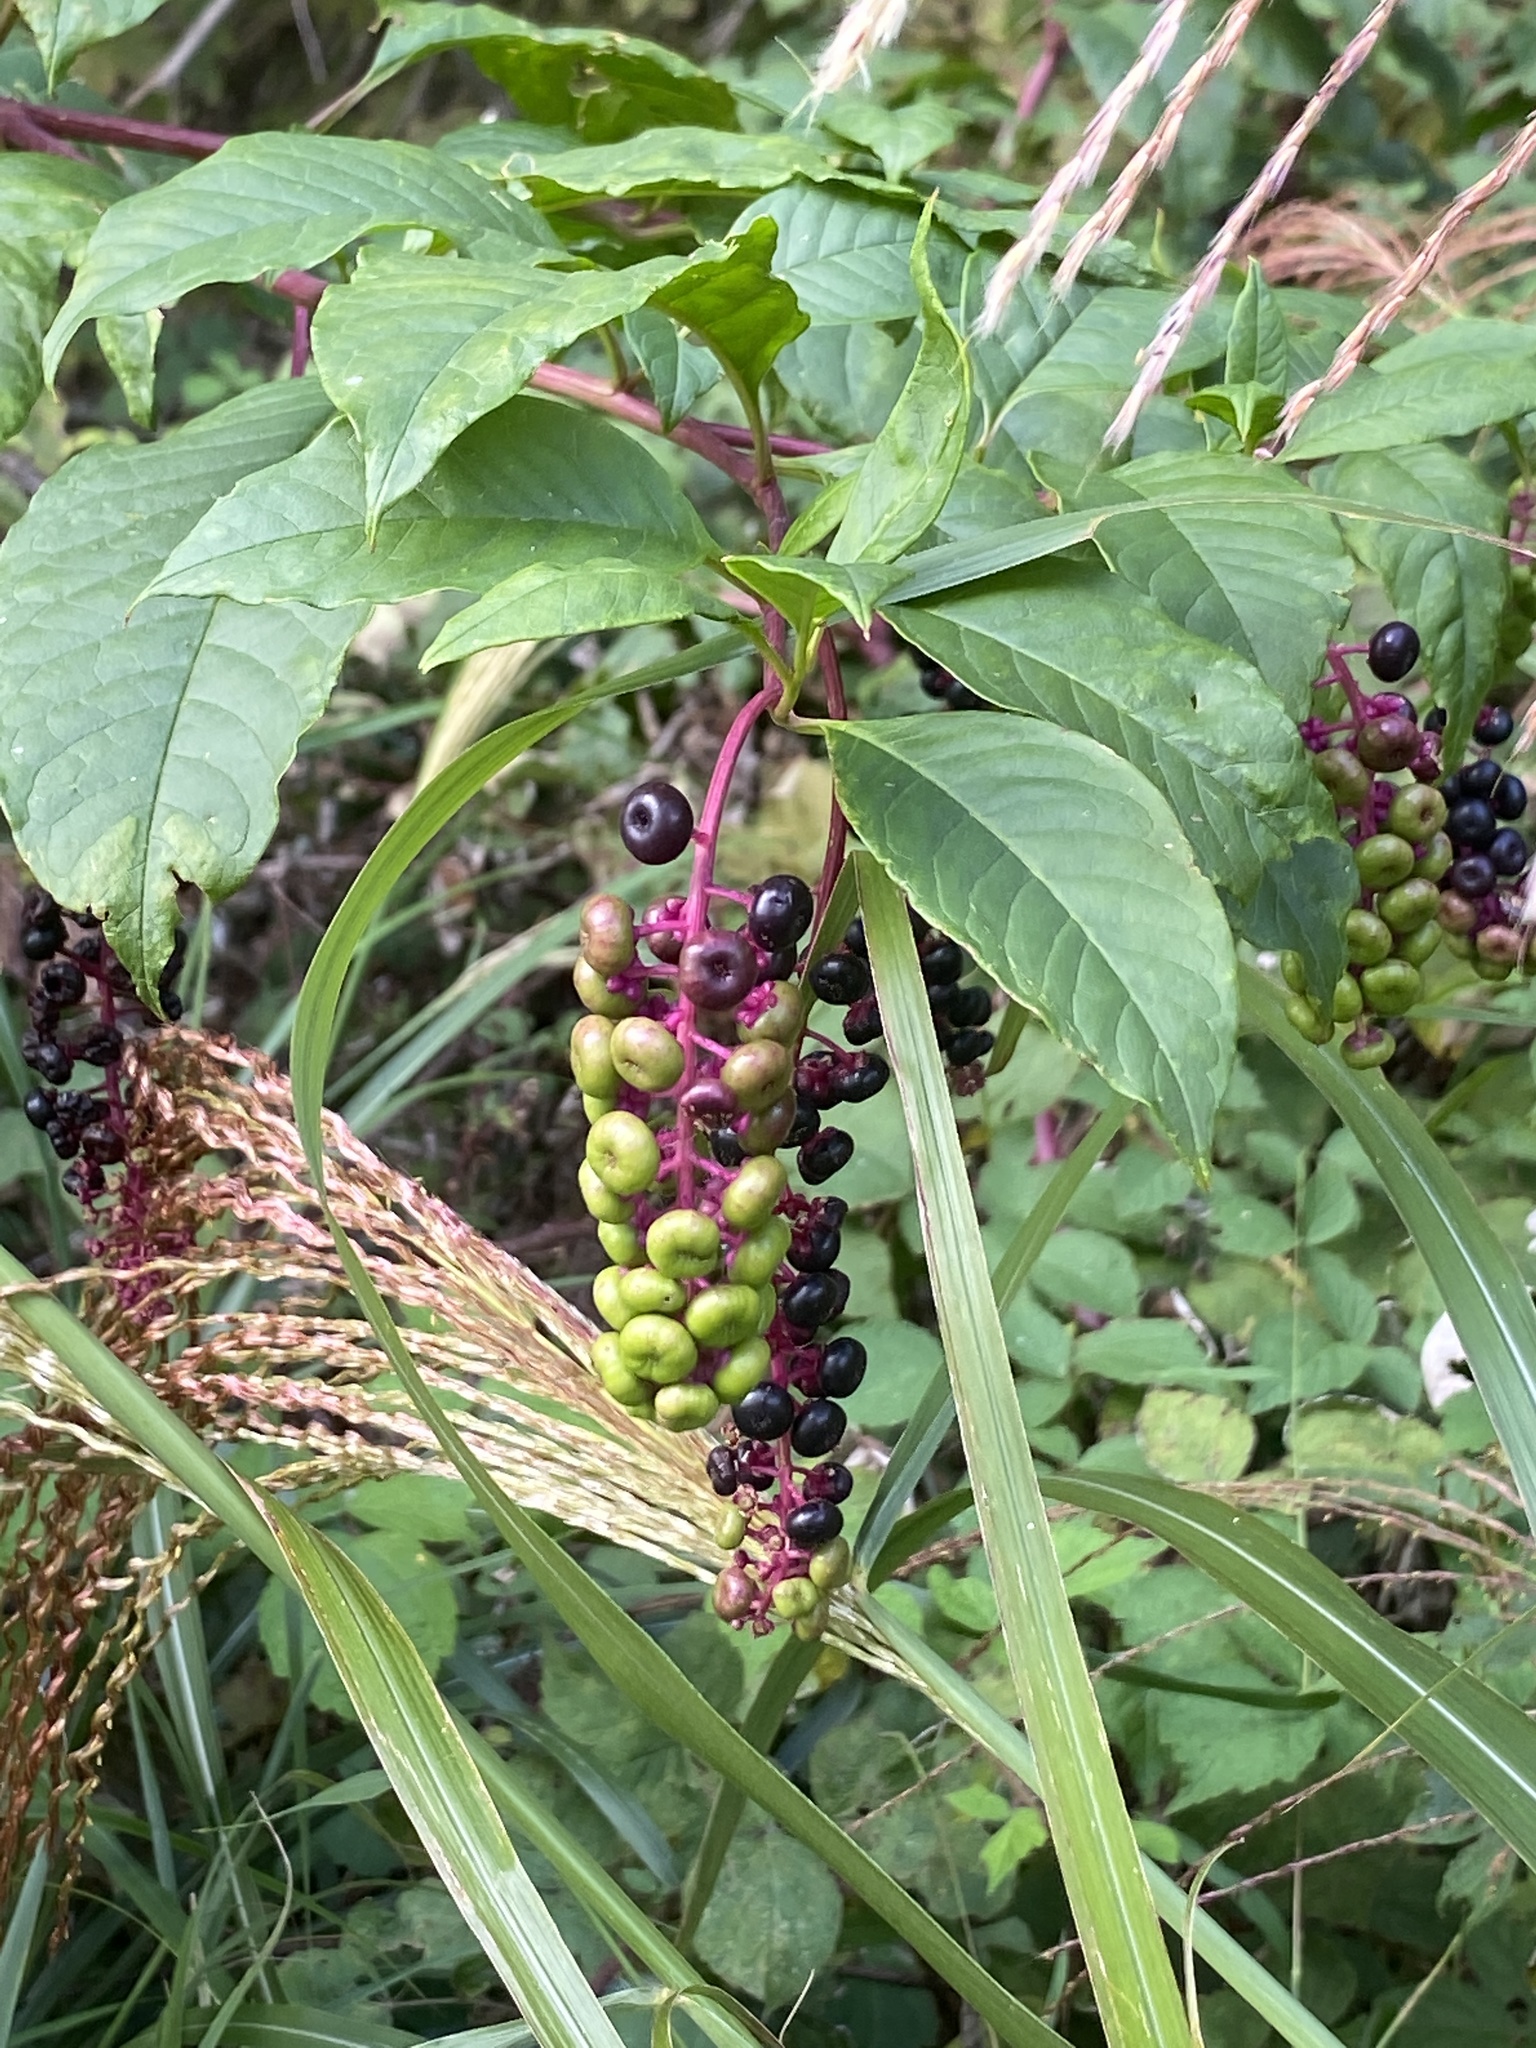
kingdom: Plantae
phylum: Tracheophyta
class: Magnoliopsida
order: Caryophyllales
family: Phytolaccaceae
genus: Phytolacca
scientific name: Phytolacca americana
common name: American pokeweed
